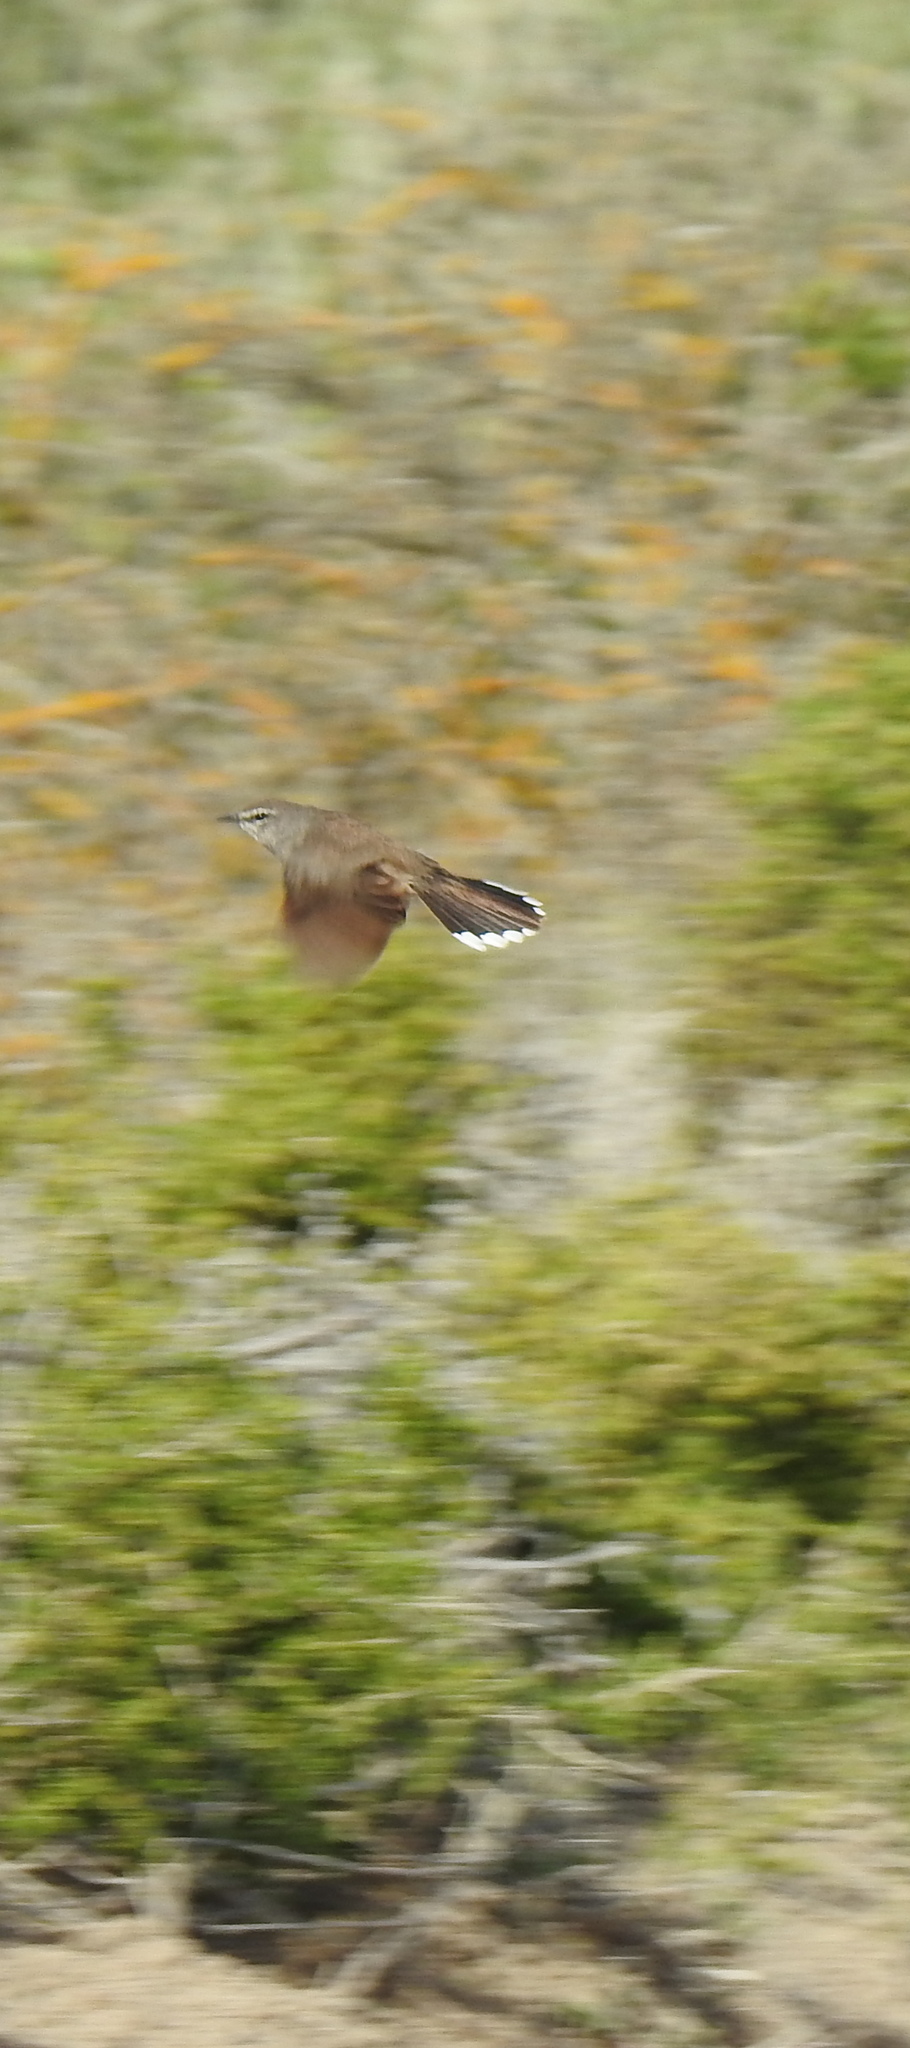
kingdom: Animalia
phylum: Chordata
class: Aves
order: Passeriformes
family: Muscicapidae
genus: Erythropygia
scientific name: Erythropygia coryphoeus
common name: Karoo scrub robin
